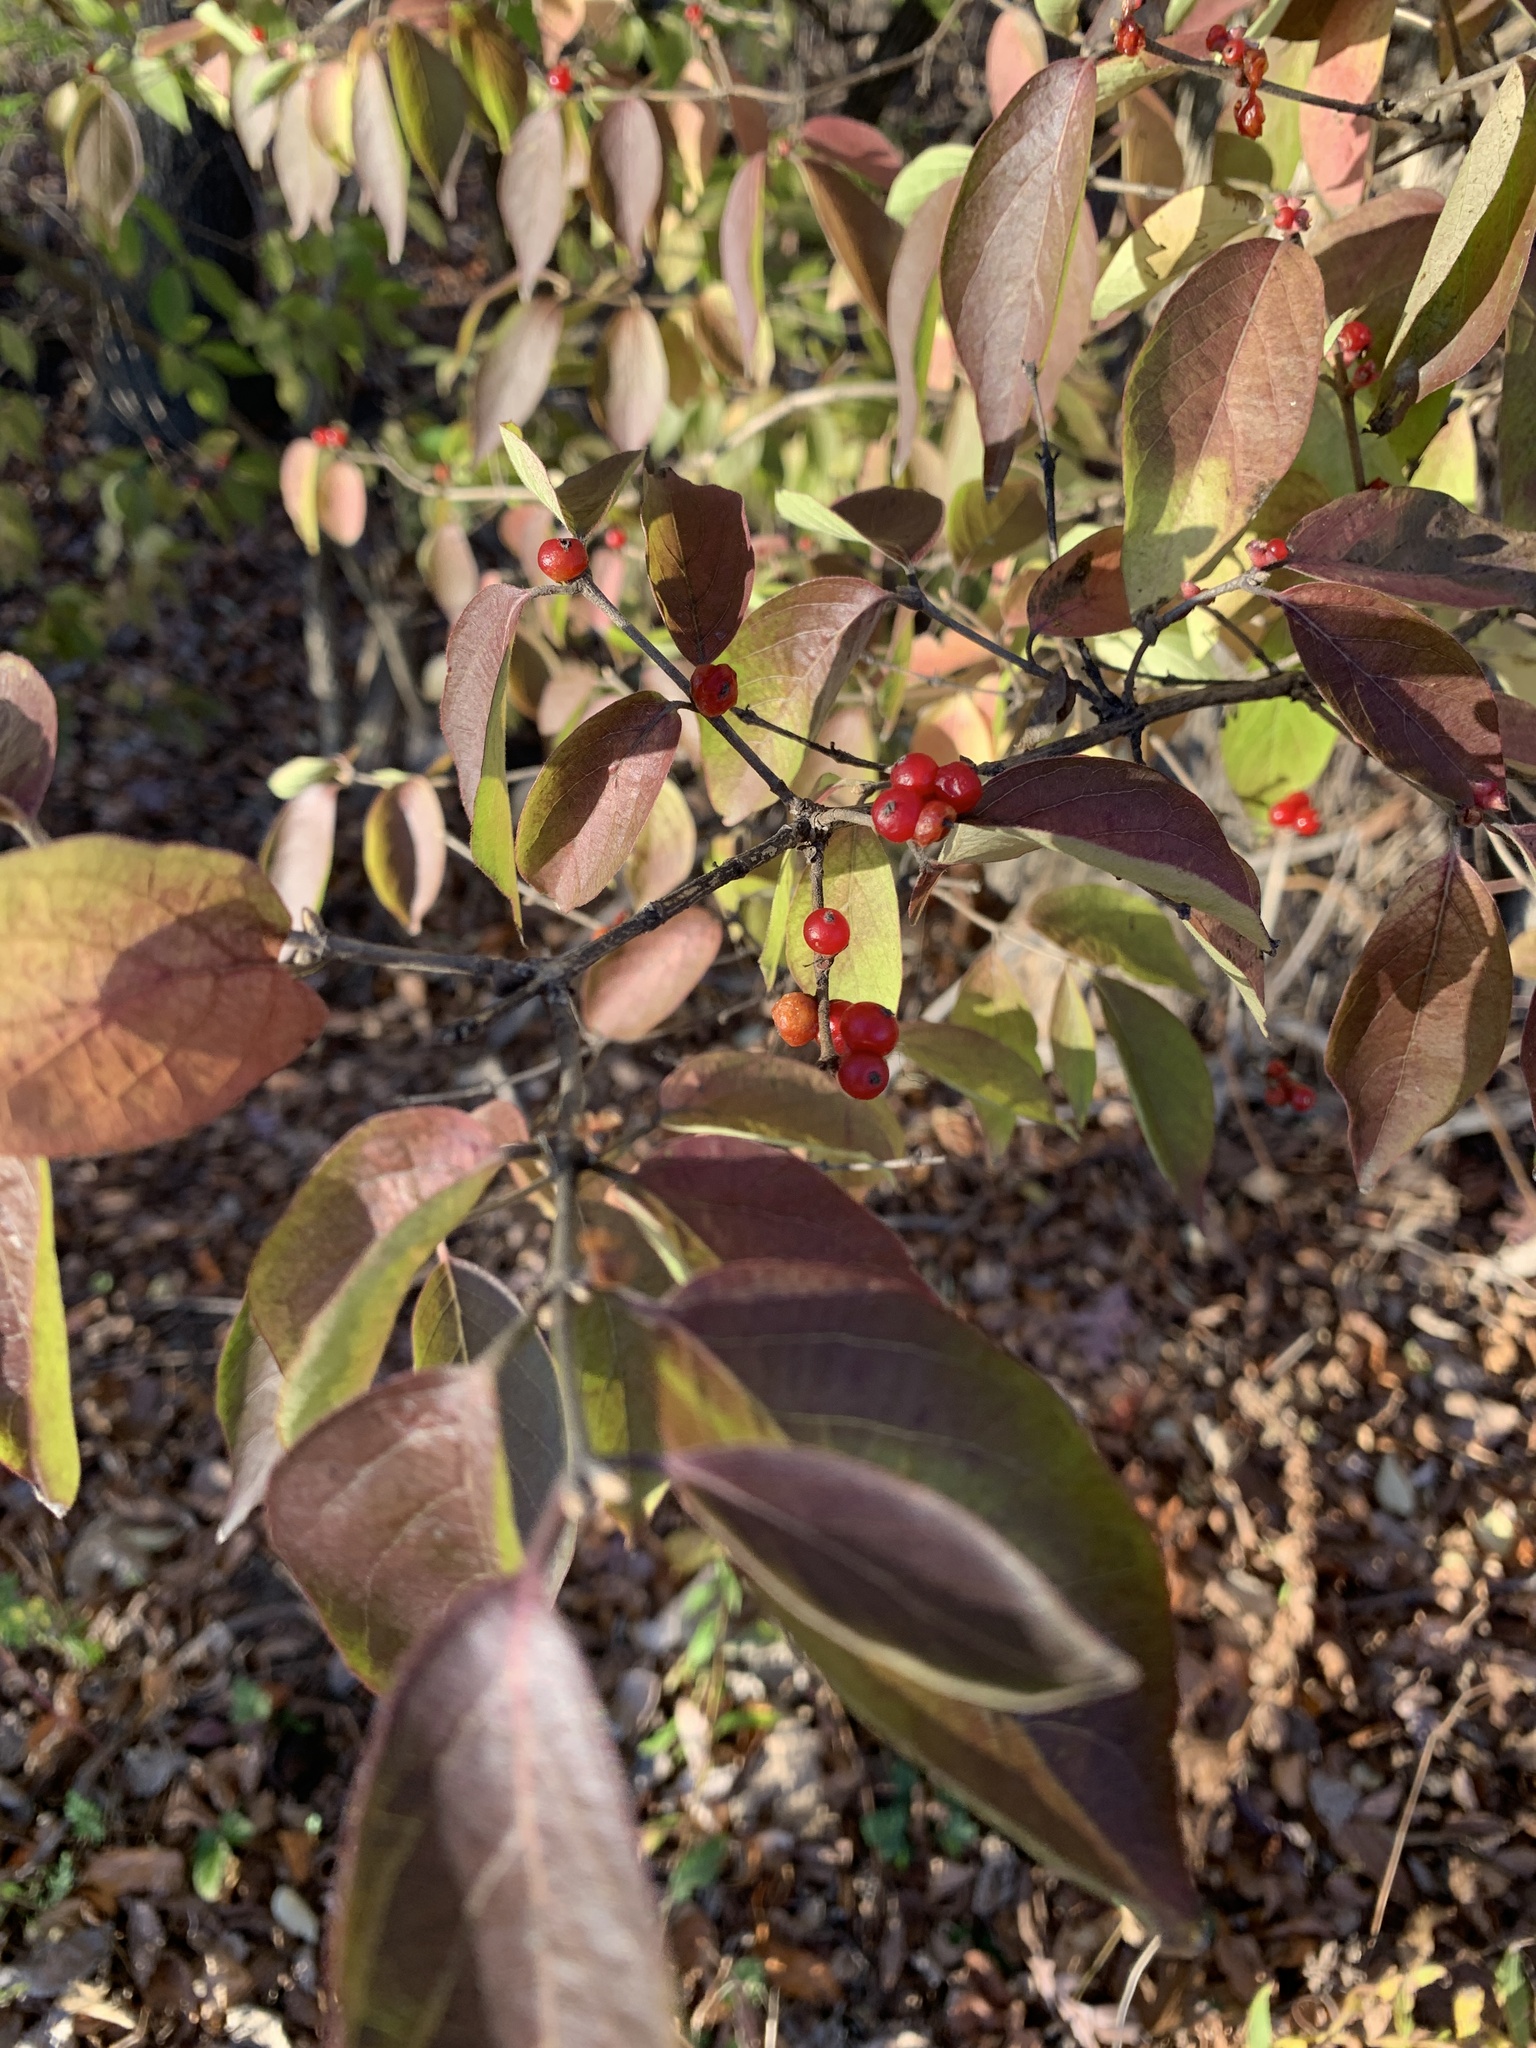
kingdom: Plantae
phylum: Tracheophyta
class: Magnoliopsida
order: Dipsacales
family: Caprifoliaceae
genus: Lonicera
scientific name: Lonicera maackii
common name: Amur honeysuckle
